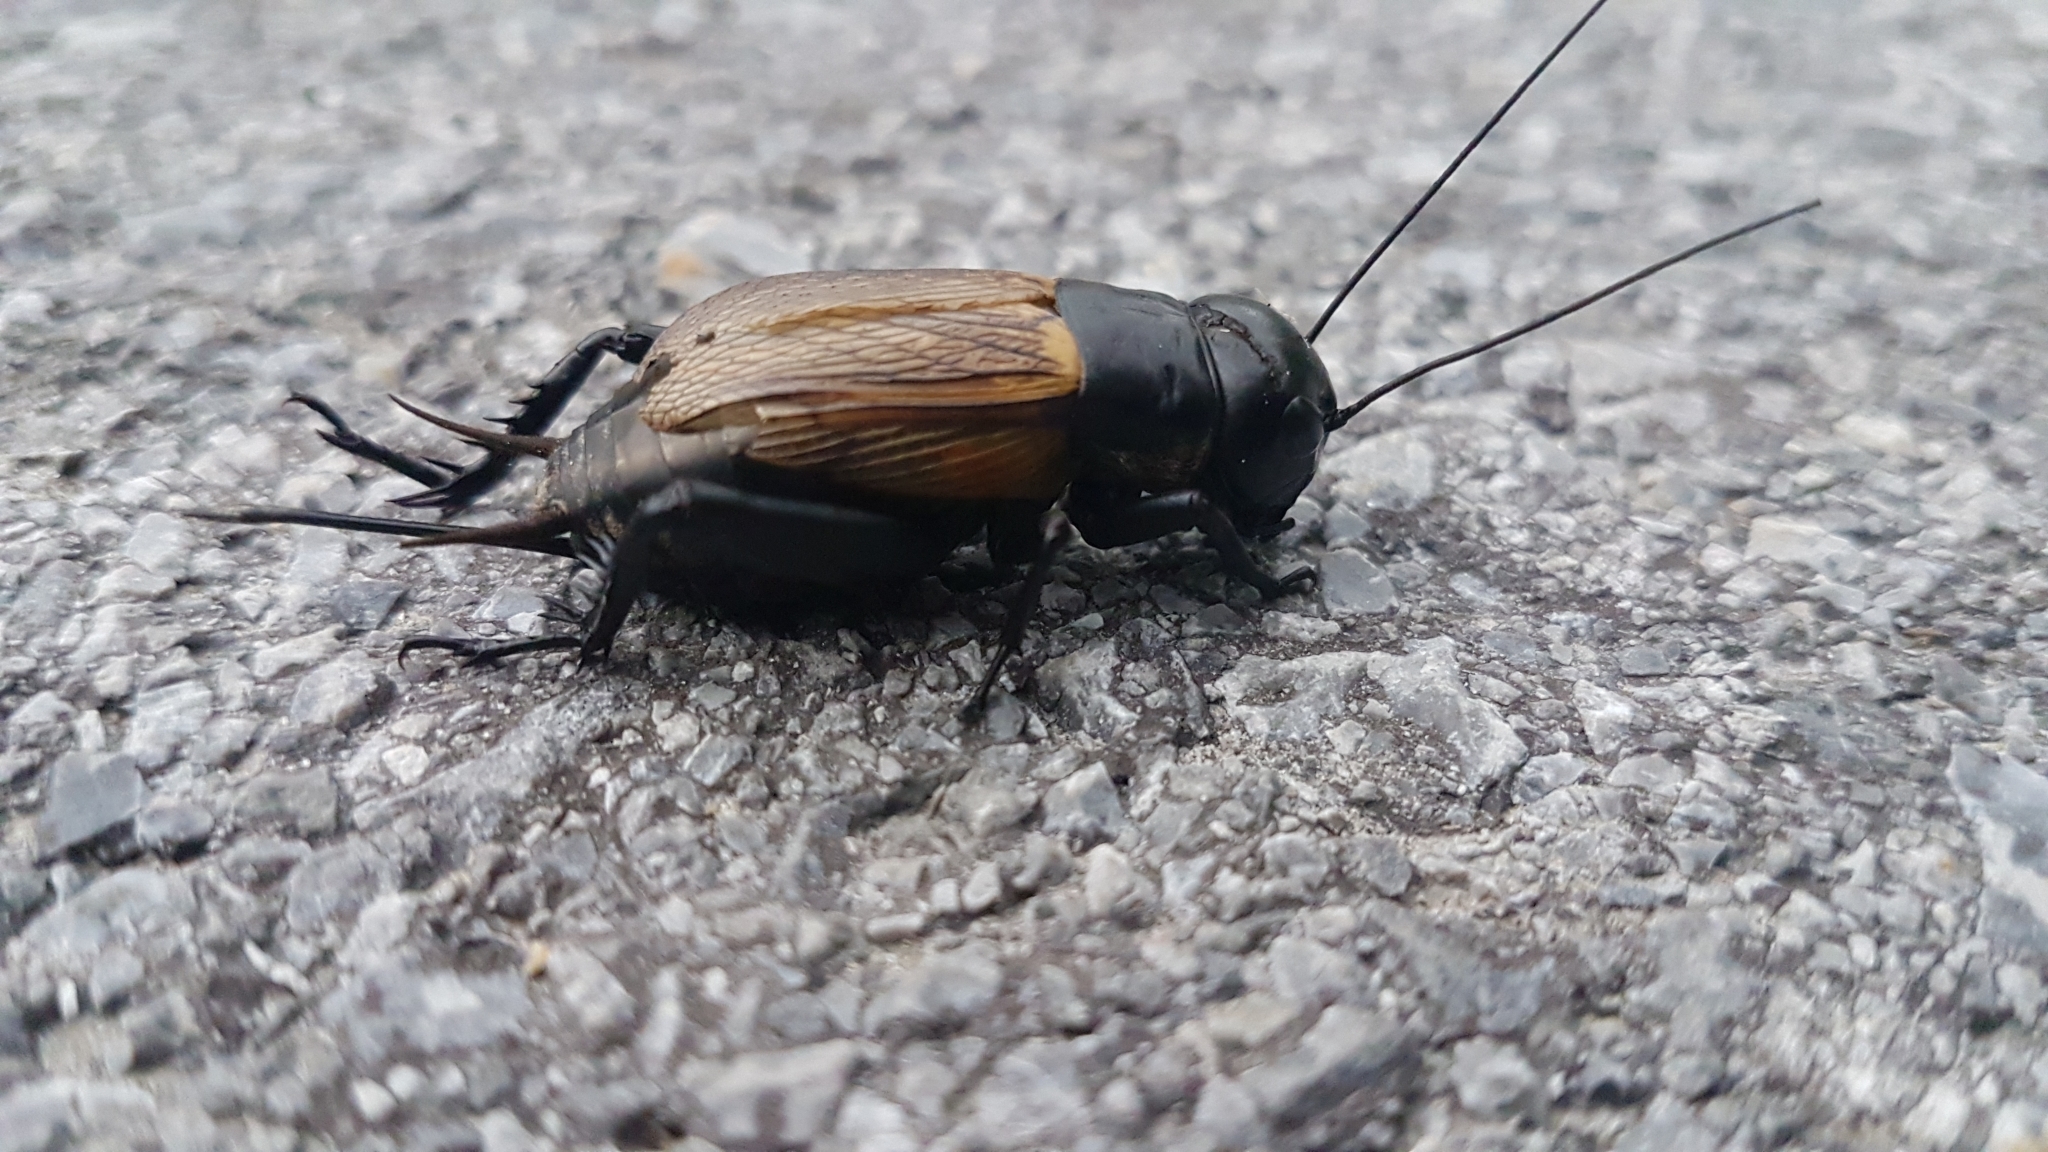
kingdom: Animalia
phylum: Arthropoda
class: Insecta
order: Orthoptera
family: Gryllidae
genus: Gryllus
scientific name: Gryllus campestris
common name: Field cricket
